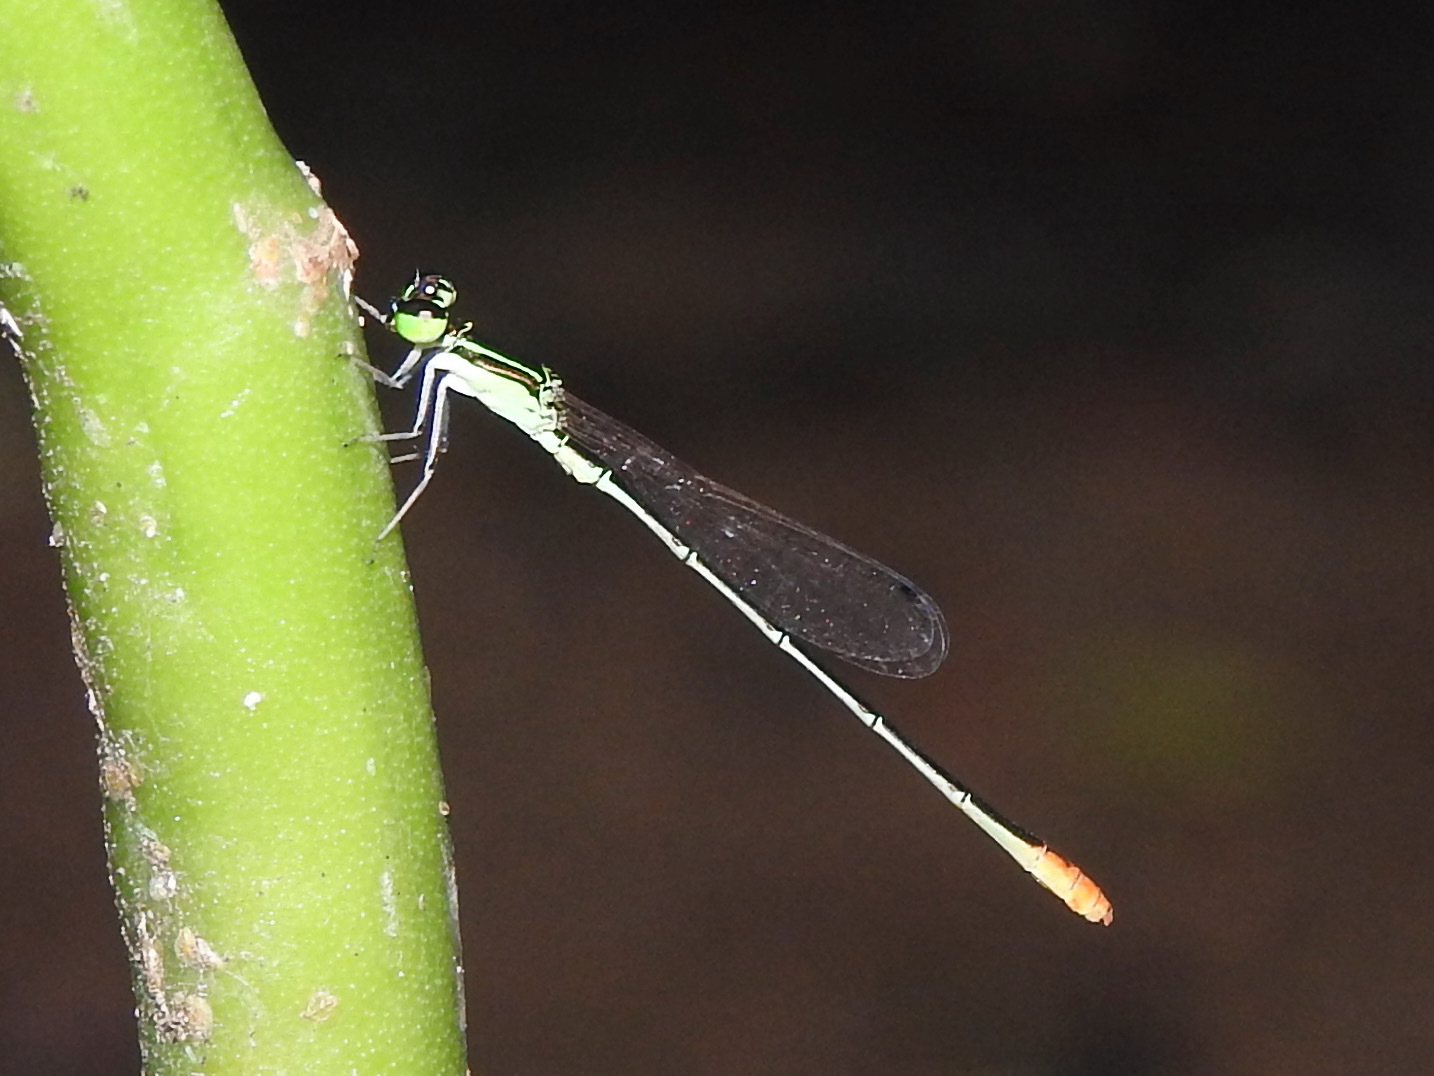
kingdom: Animalia
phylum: Arthropoda
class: Insecta
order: Odonata
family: Coenagrionidae
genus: Agriocnemis
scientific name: Agriocnemis pygmaea
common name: Pygmy wisp
